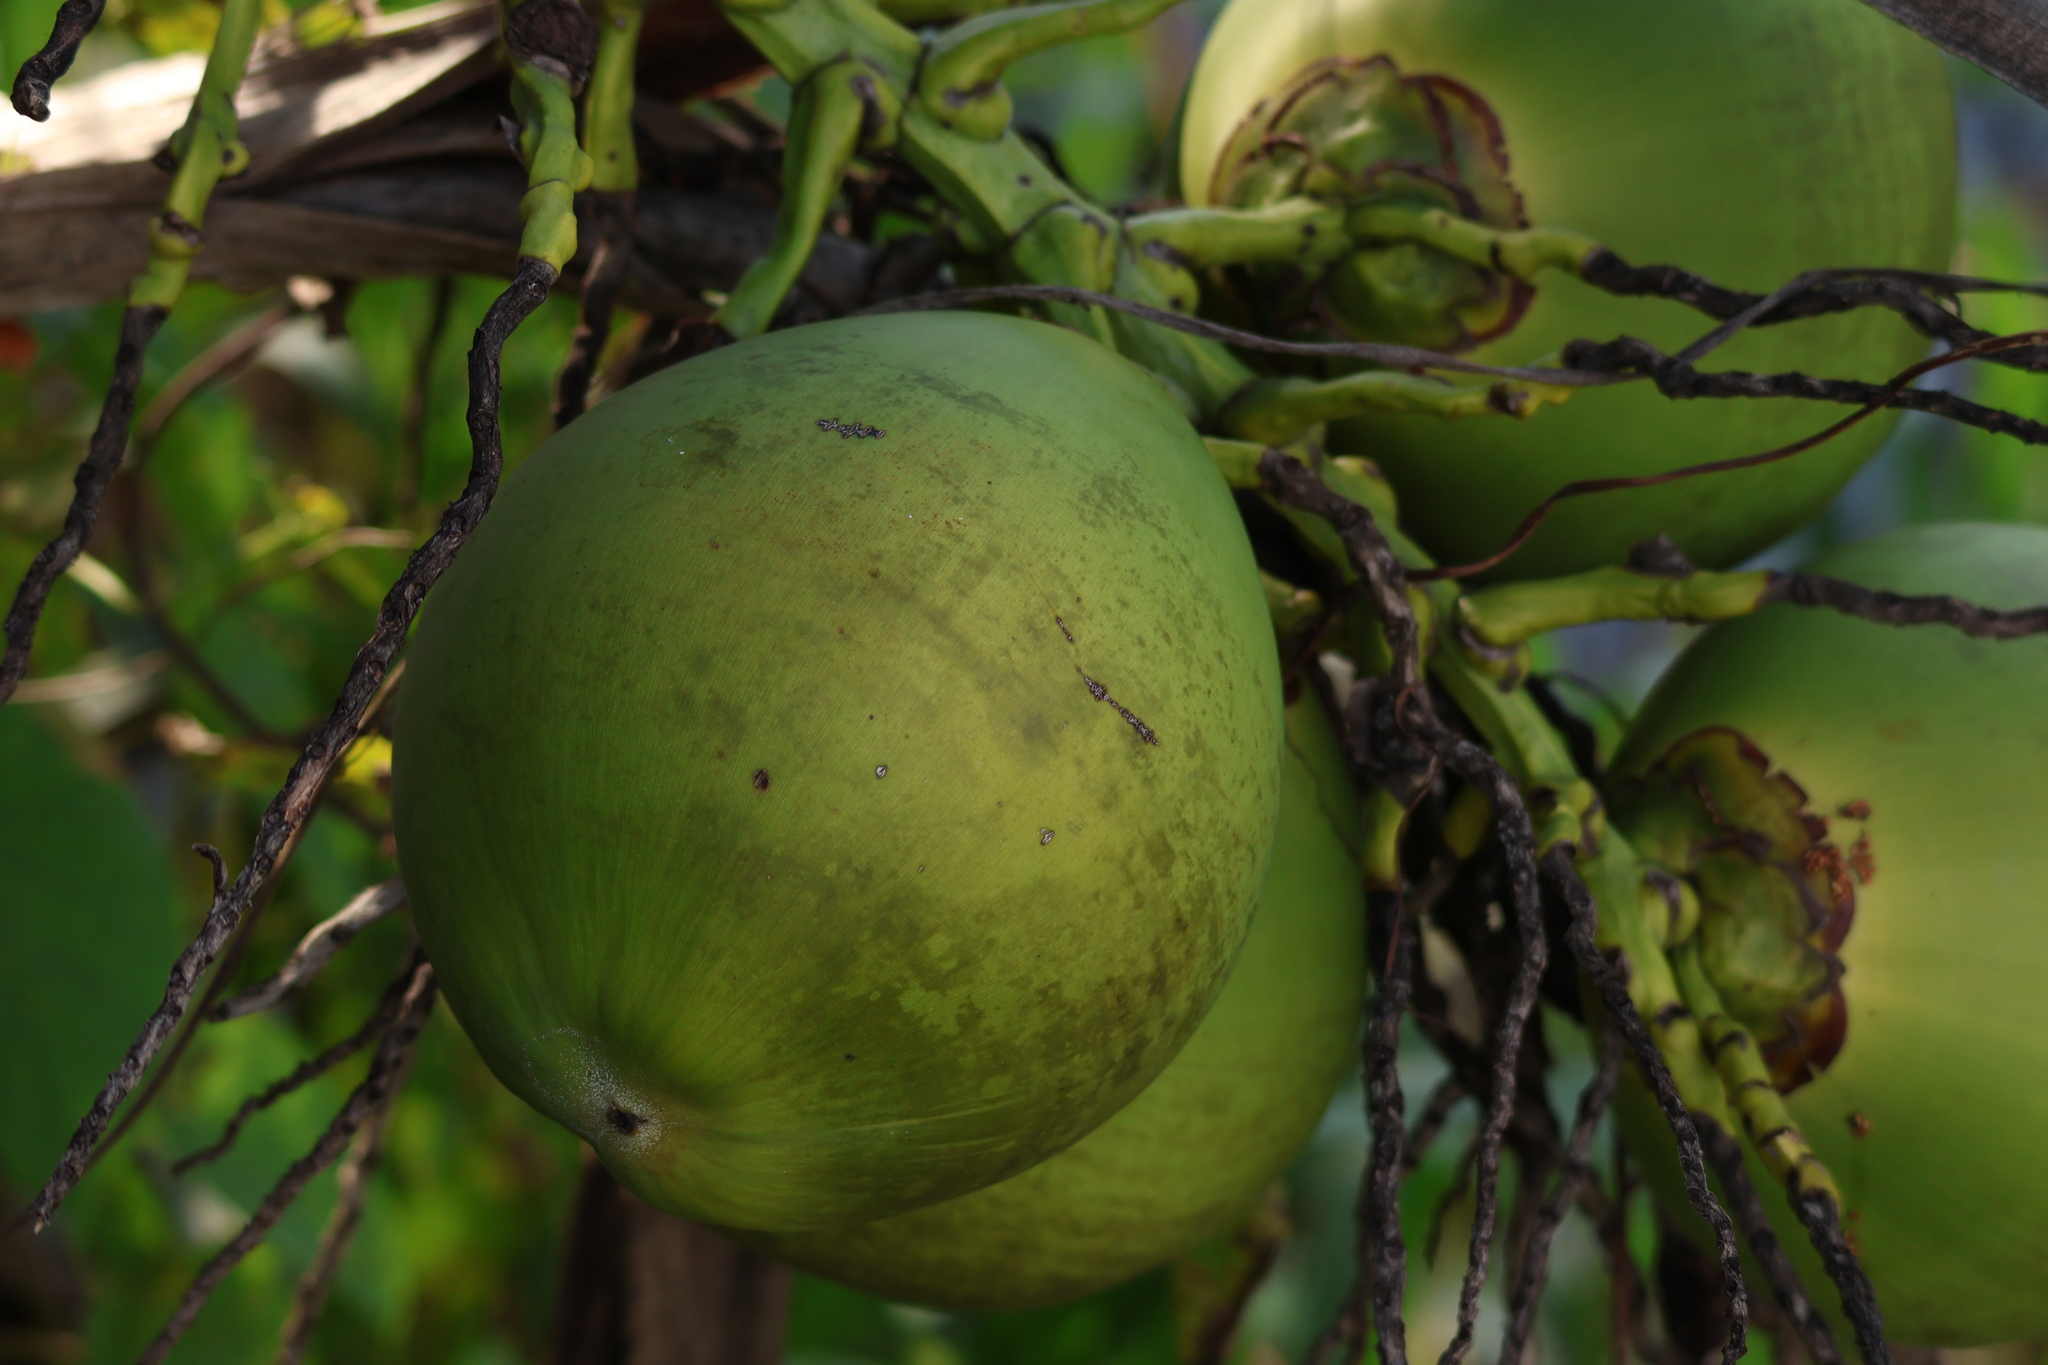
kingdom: Plantae
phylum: Tracheophyta
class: Liliopsida
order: Arecales
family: Arecaceae
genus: Cocos
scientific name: Cocos nucifera
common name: Coconut palm
